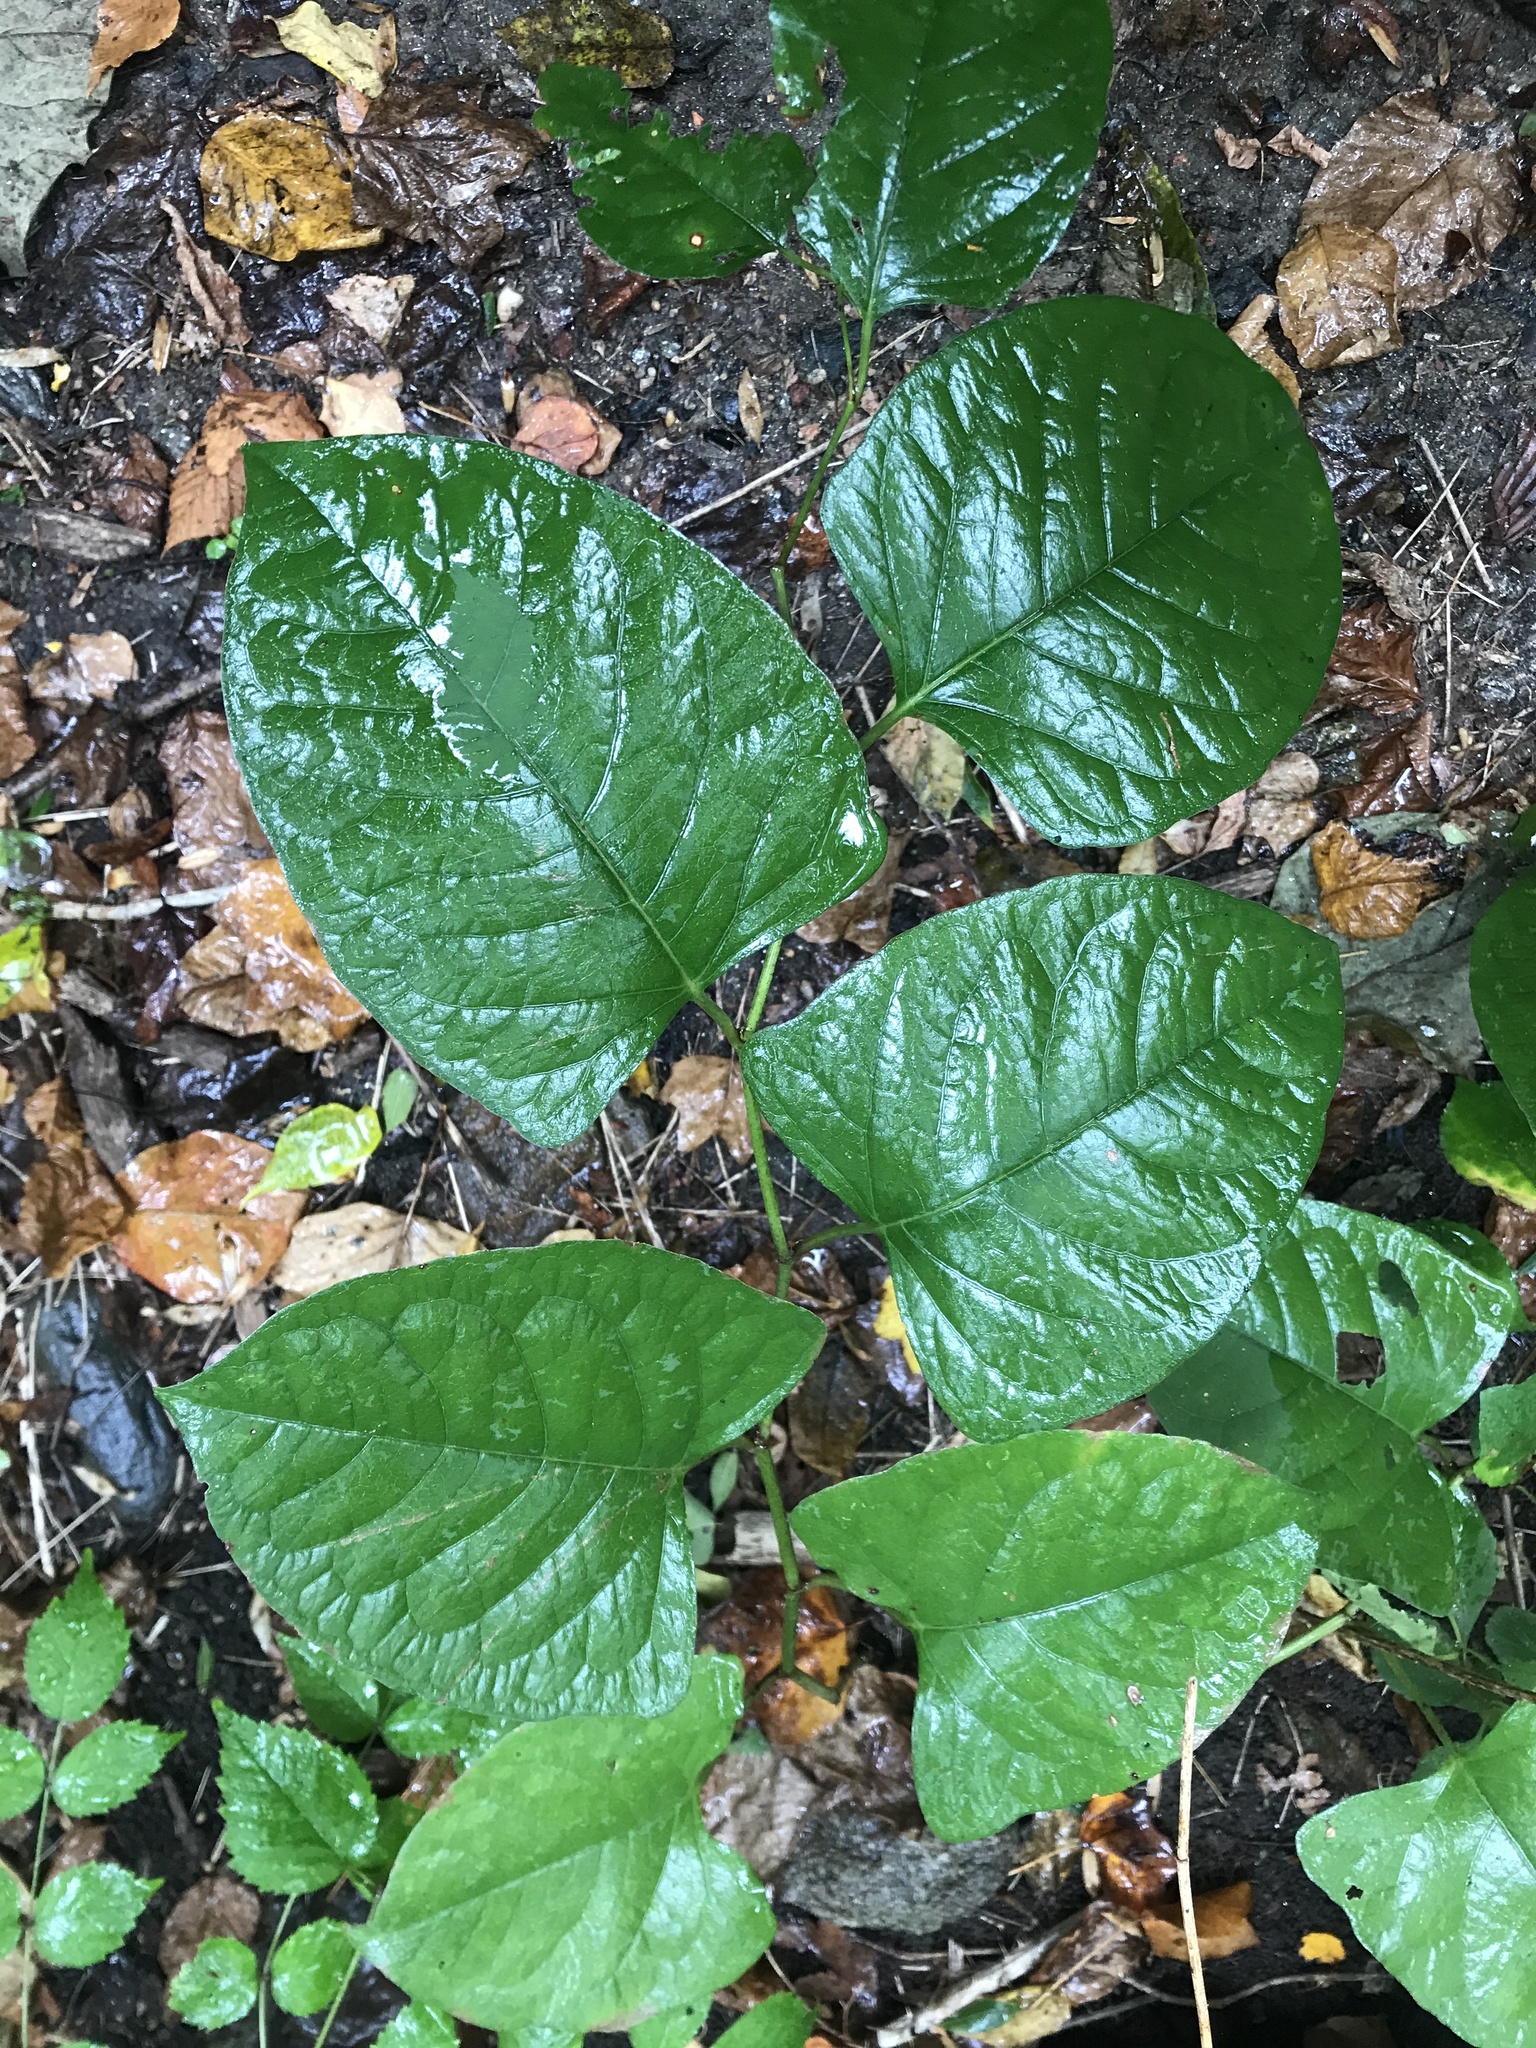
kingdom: Plantae
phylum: Tracheophyta
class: Magnoliopsida
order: Caryophyllales
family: Polygonaceae
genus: Reynoutria
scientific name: Reynoutria japonica
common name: Japanese knotweed
